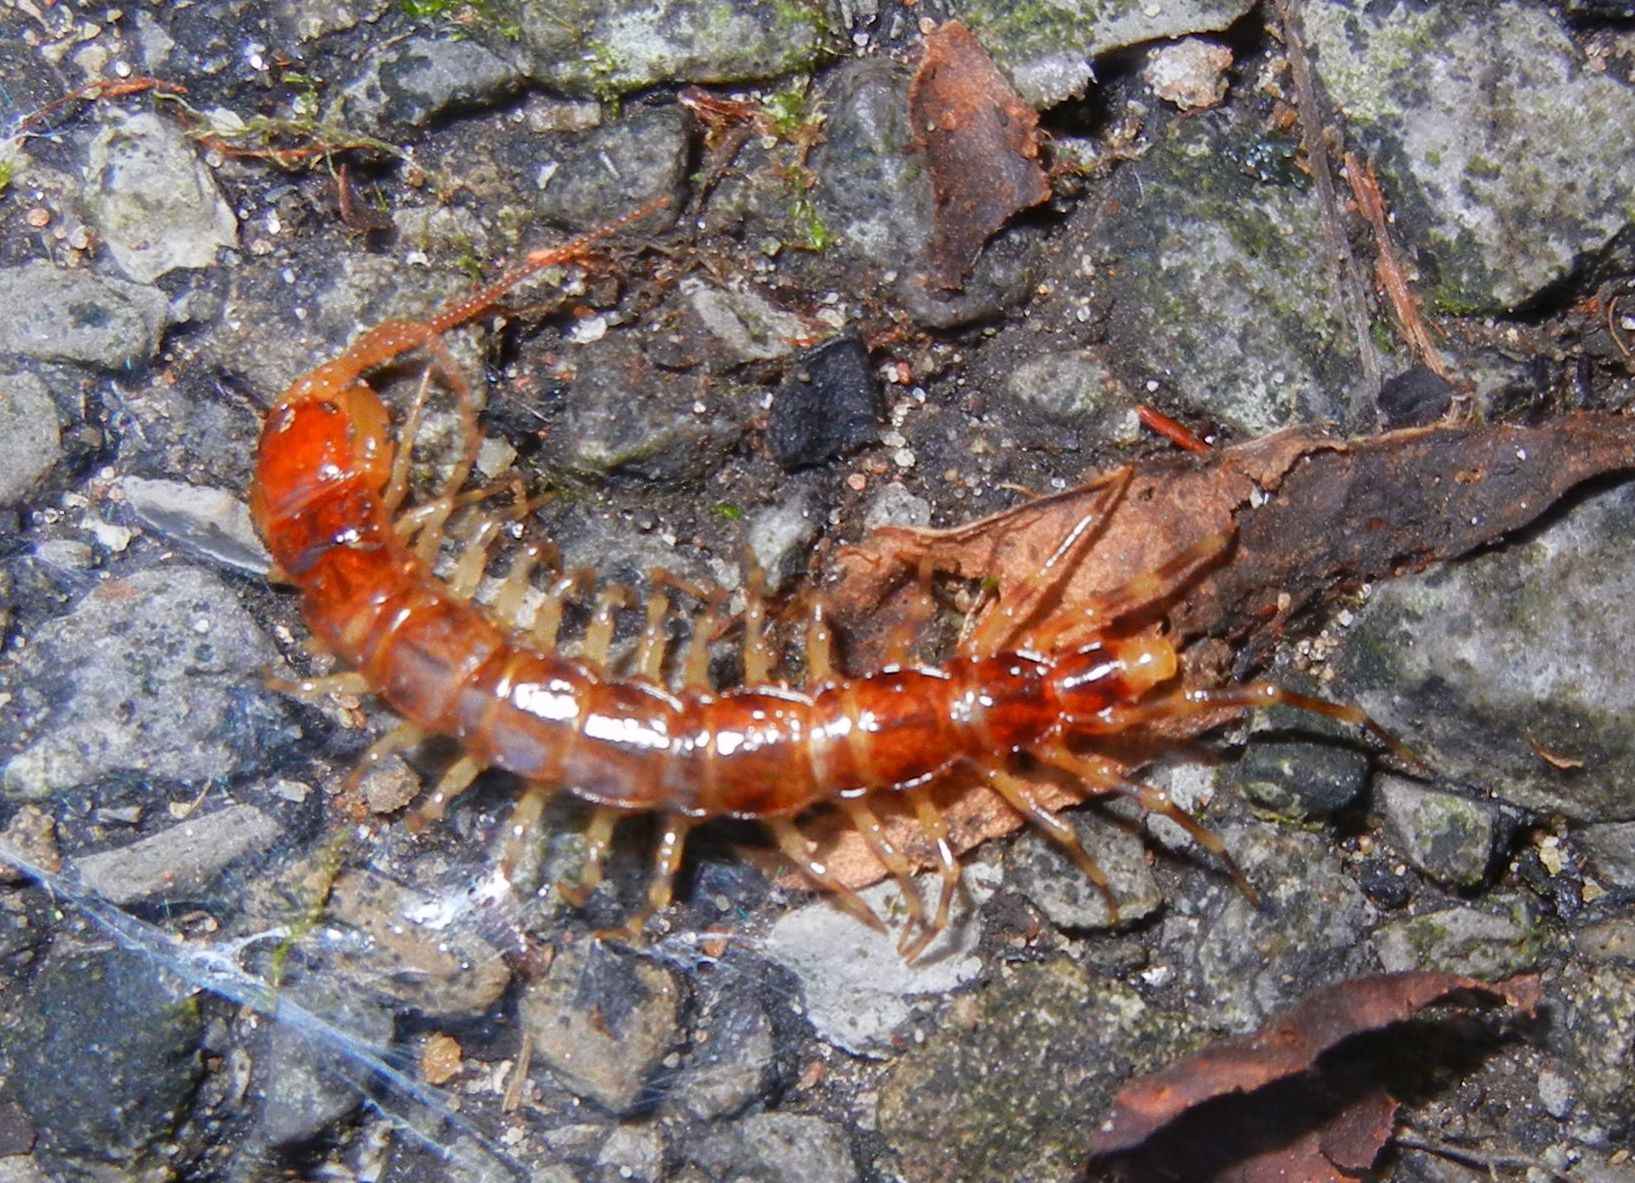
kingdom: Animalia
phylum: Arthropoda
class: Chilopoda
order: Lithobiomorpha
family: Lithobiidae
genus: Lithobius
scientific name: Lithobius variegatus
